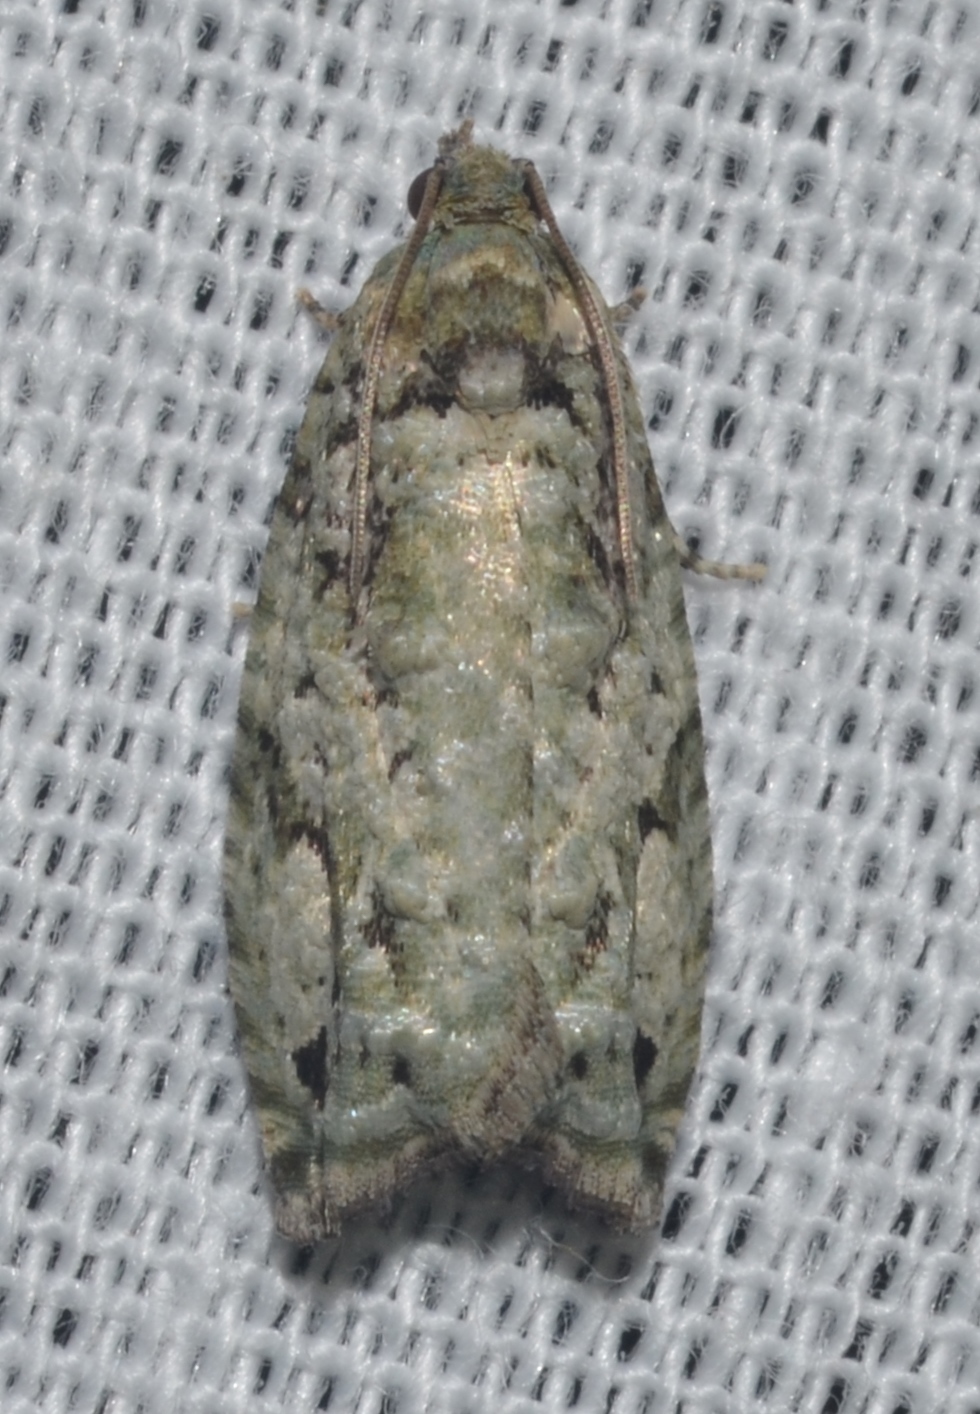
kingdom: Animalia
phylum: Arthropoda
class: Insecta
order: Lepidoptera
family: Tortricidae
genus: Proteoteras
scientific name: Proteoteras moffatiana
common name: Maple bud borer moth
